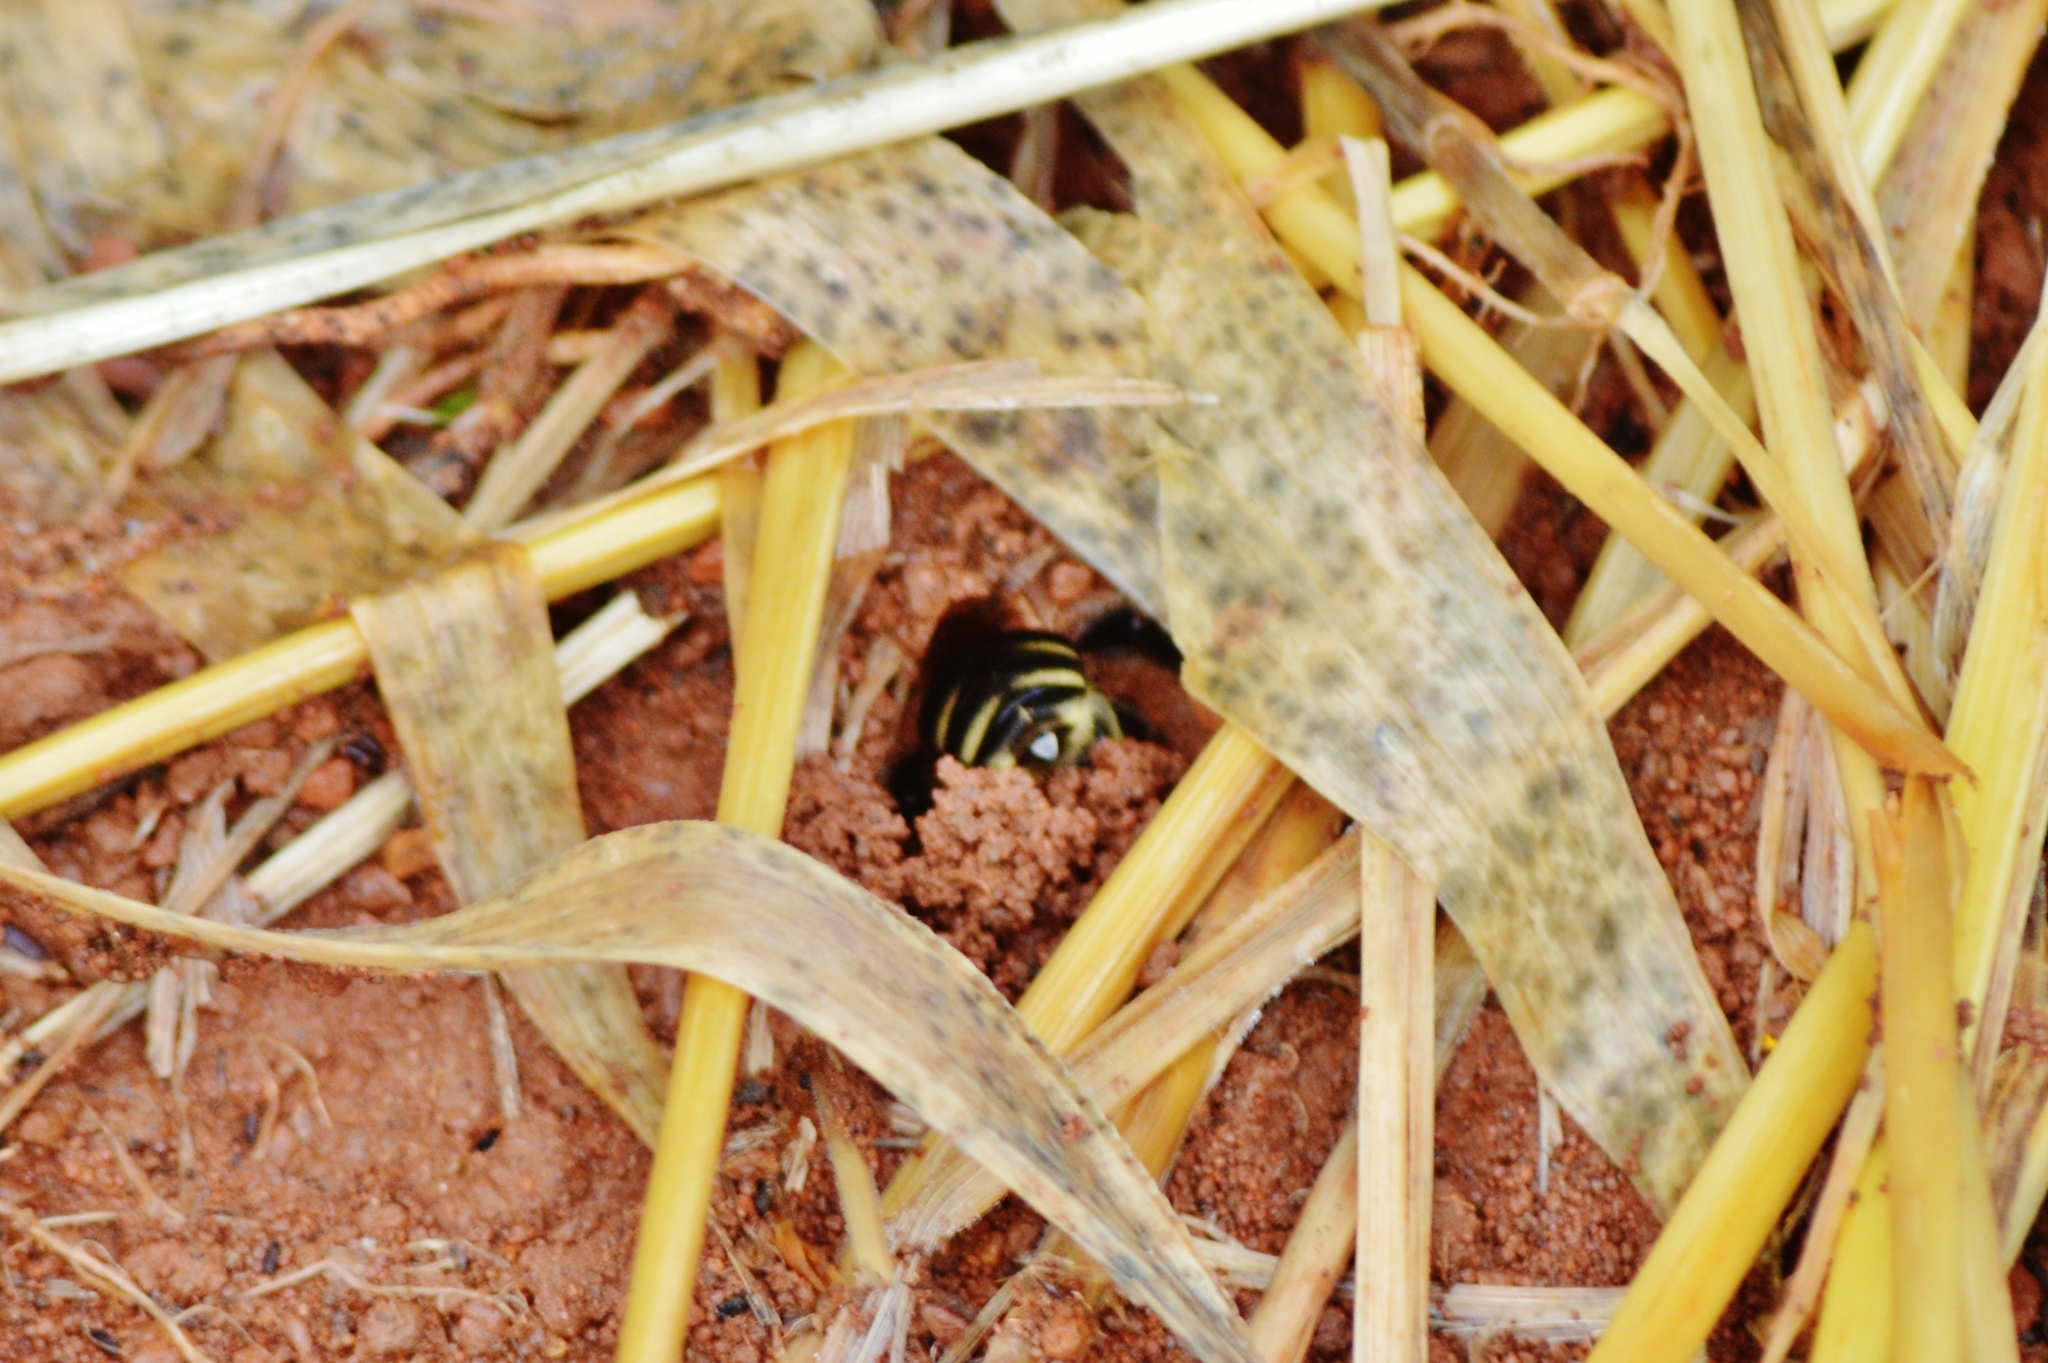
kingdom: Animalia
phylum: Arthropoda
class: Insecta
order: Hymenoptera
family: Apidae
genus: Gaesischia
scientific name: Gaesischia belophora
